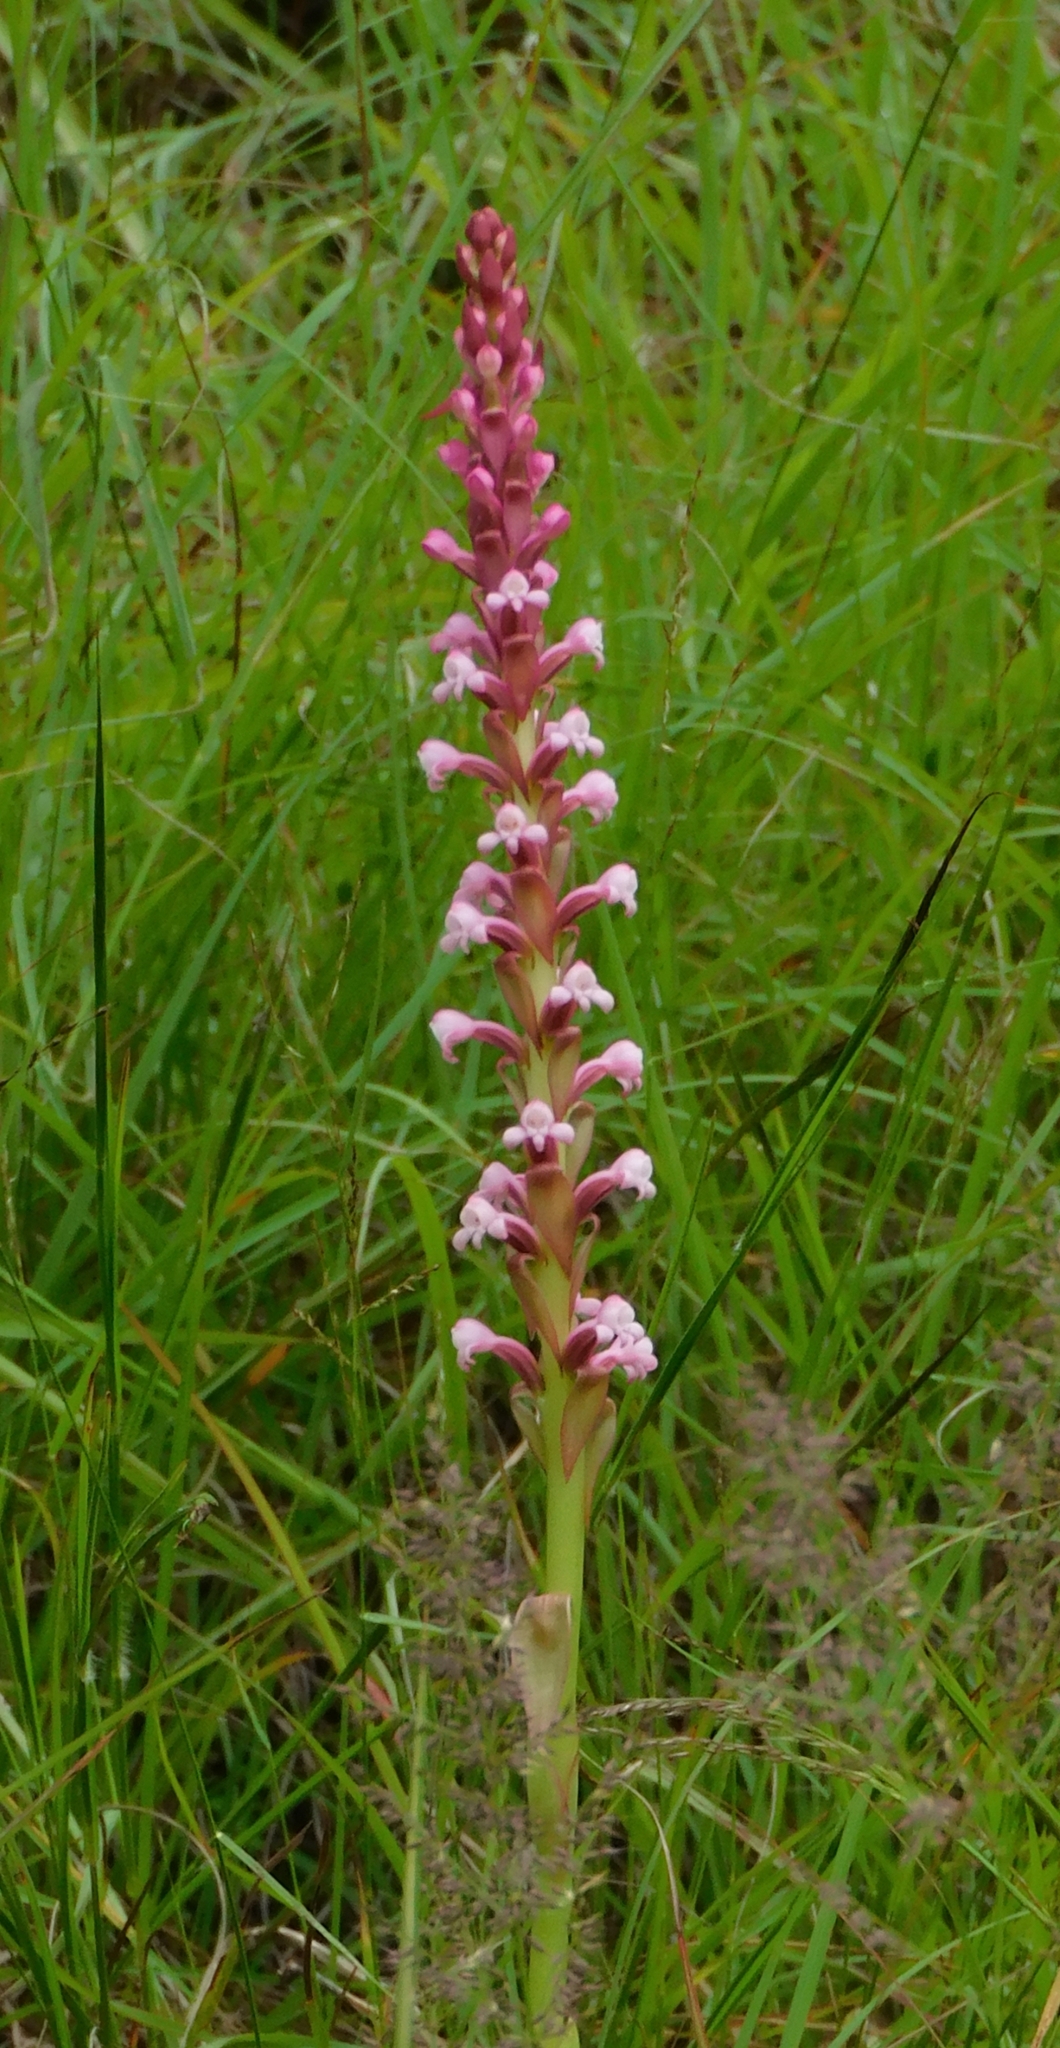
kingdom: Plantae
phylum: Tracheophyta
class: Liliopsida
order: Asparagales
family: Orchidaceae
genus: Satyrium
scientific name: Satyrium nepalense
